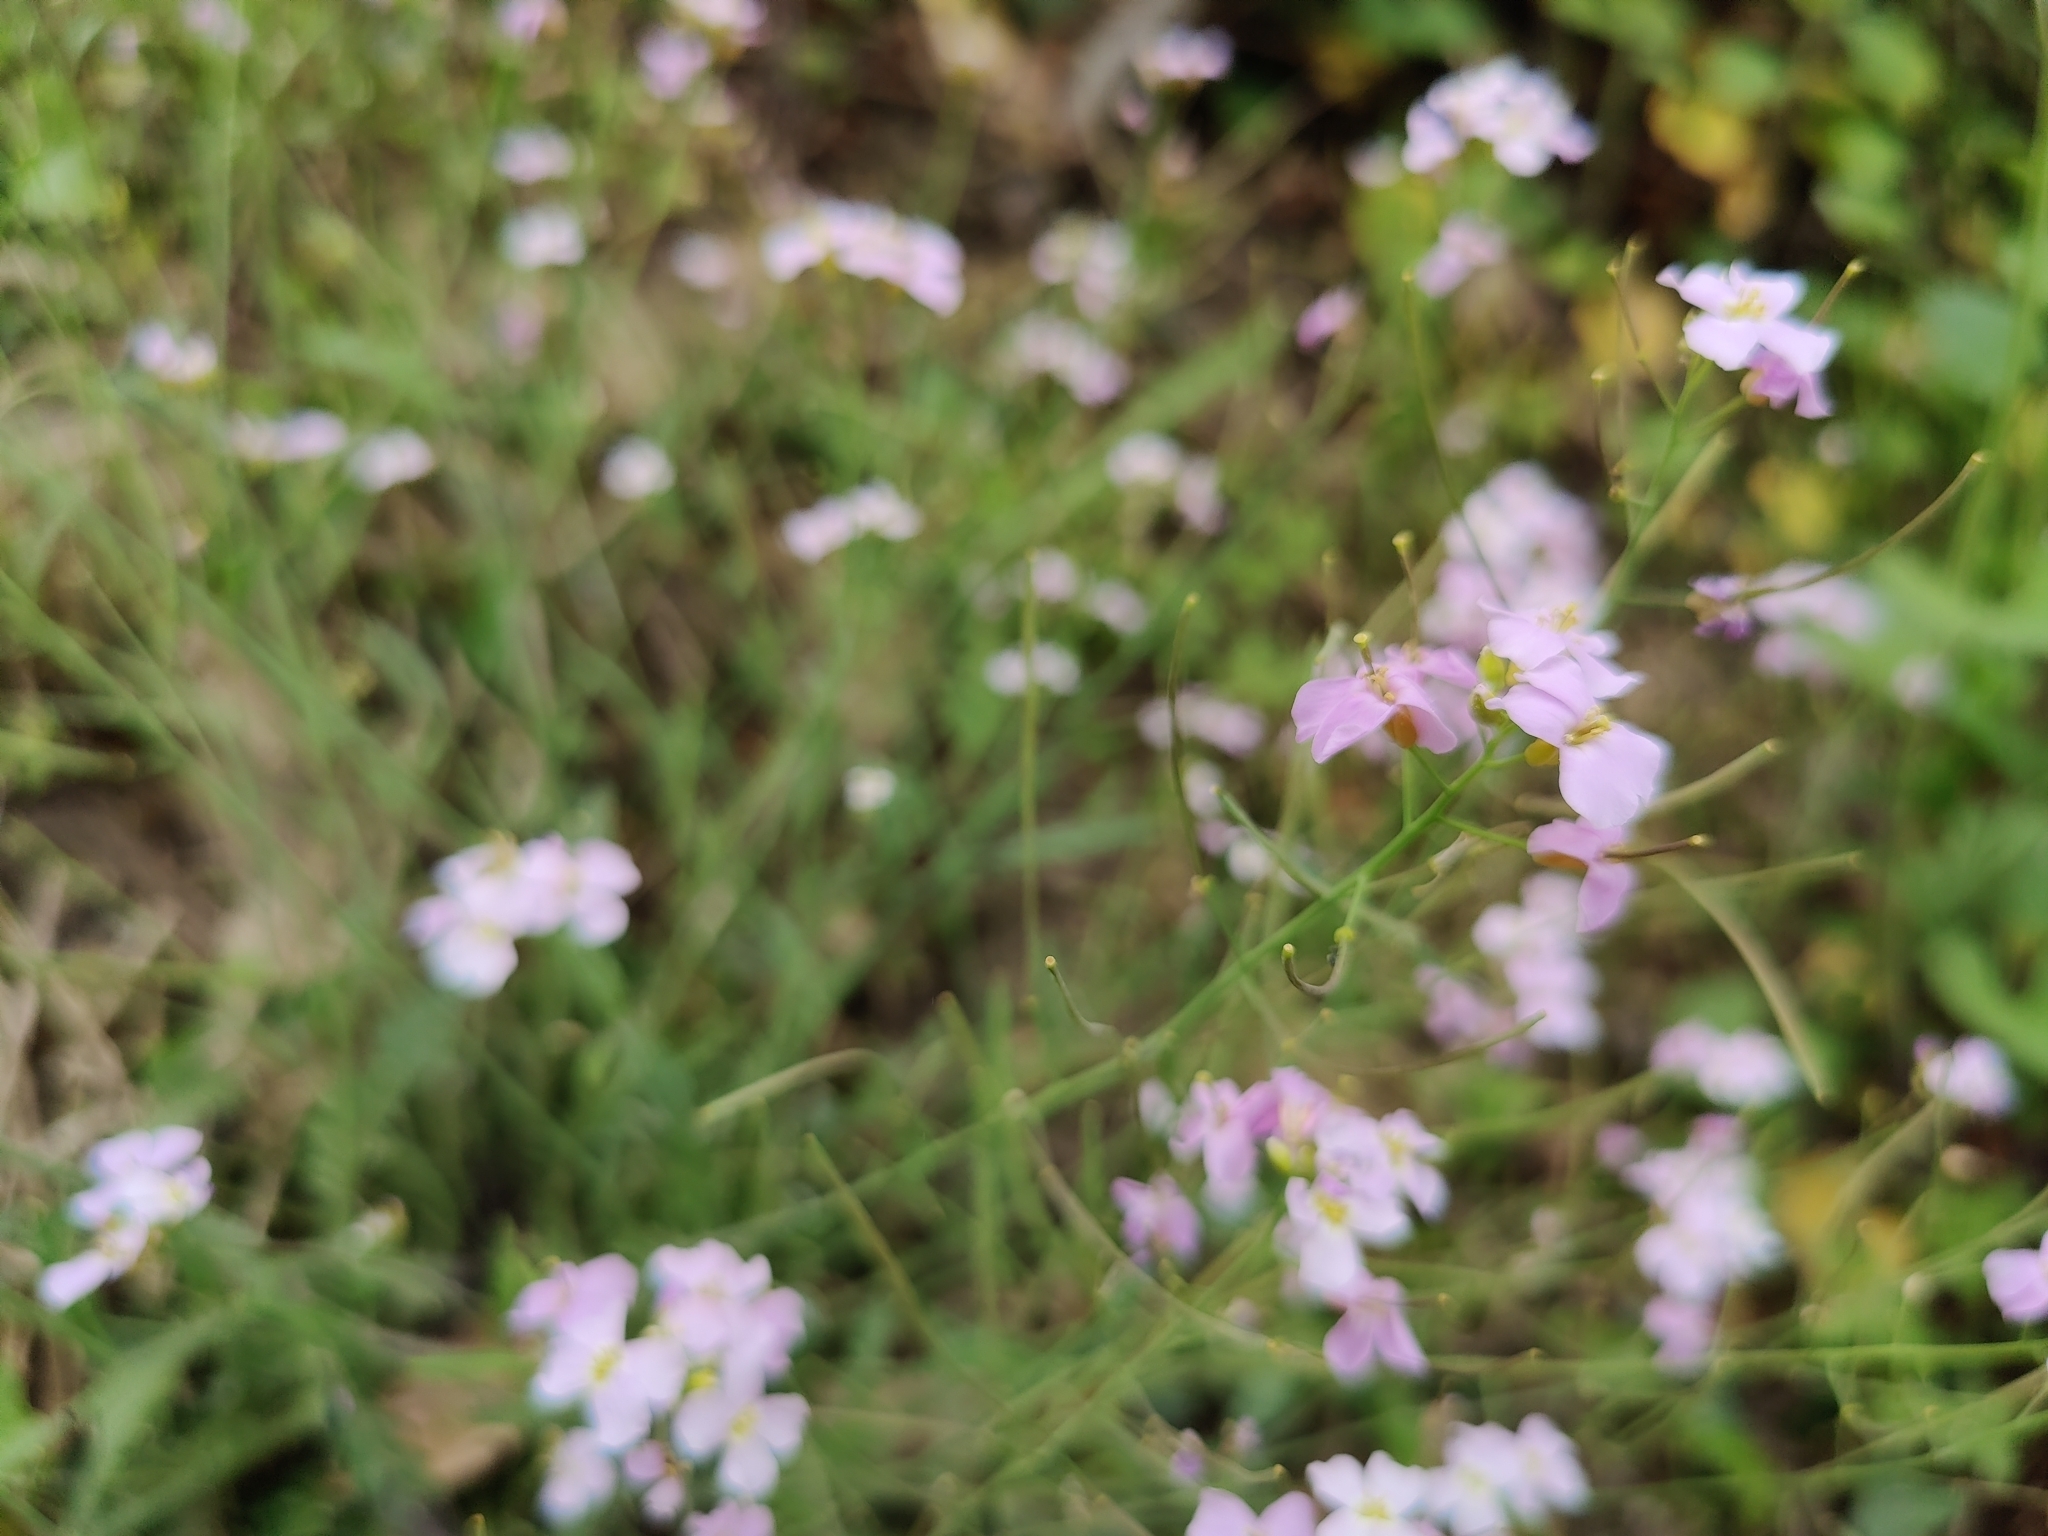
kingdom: Plantae
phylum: Tracheophyta
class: Magnoliopsida
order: Brassicales
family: Brassicaceae
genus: Arabidopsis
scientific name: Arabidopsis arenosa
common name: Sand rock-cress
